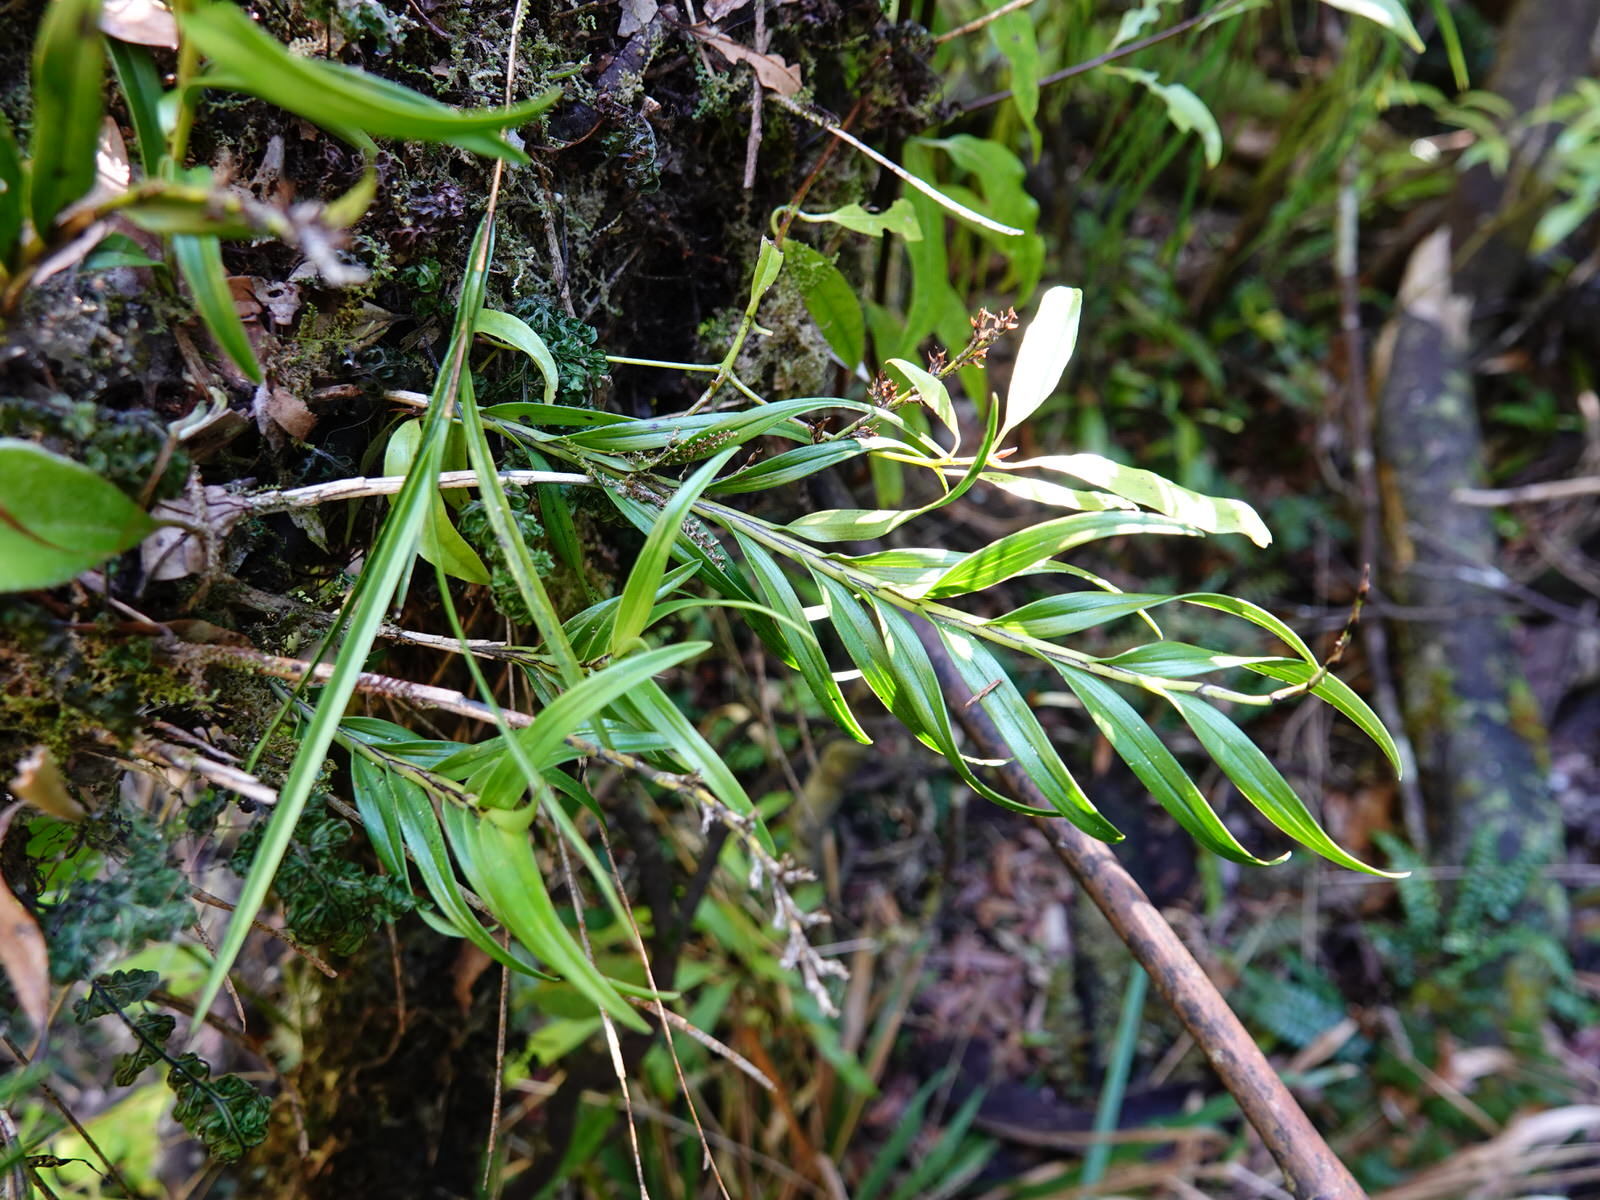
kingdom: Plantae
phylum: Tracheophyta
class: Liliopsida
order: Asparagales
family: Orchidaceae
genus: Earina
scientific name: Earina autumnalis
